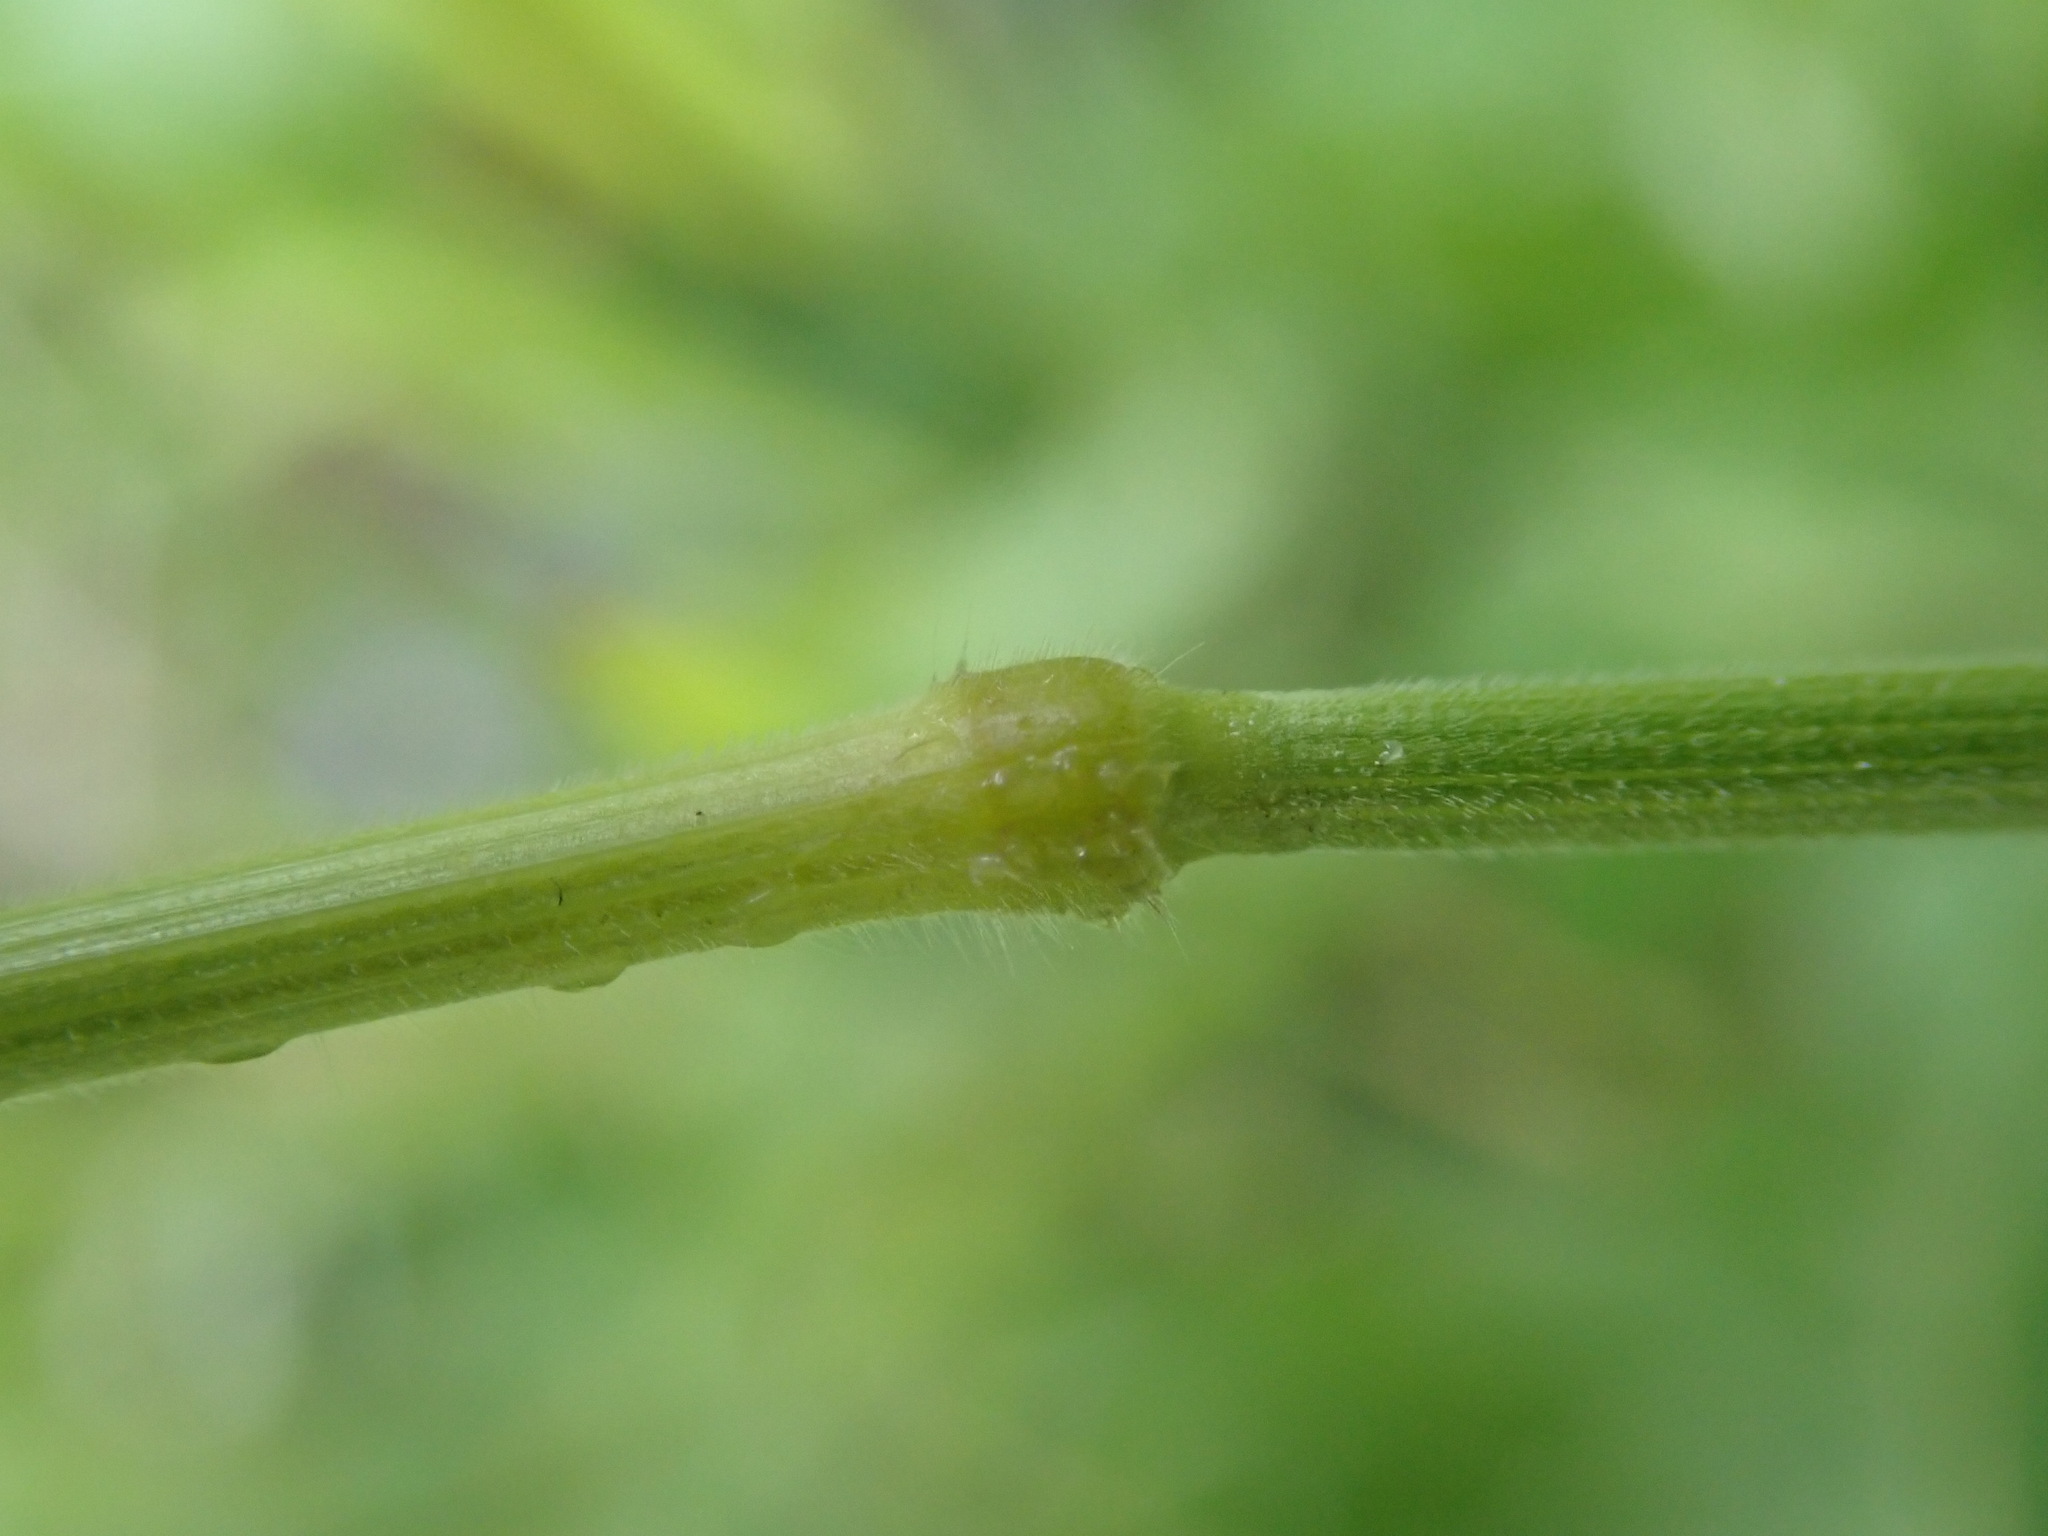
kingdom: Plantae
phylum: Tracheophyta
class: Liliopsida
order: Poales
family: Poaceae
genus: Bromus
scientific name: Bromus hordeaceus
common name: Soft brome
